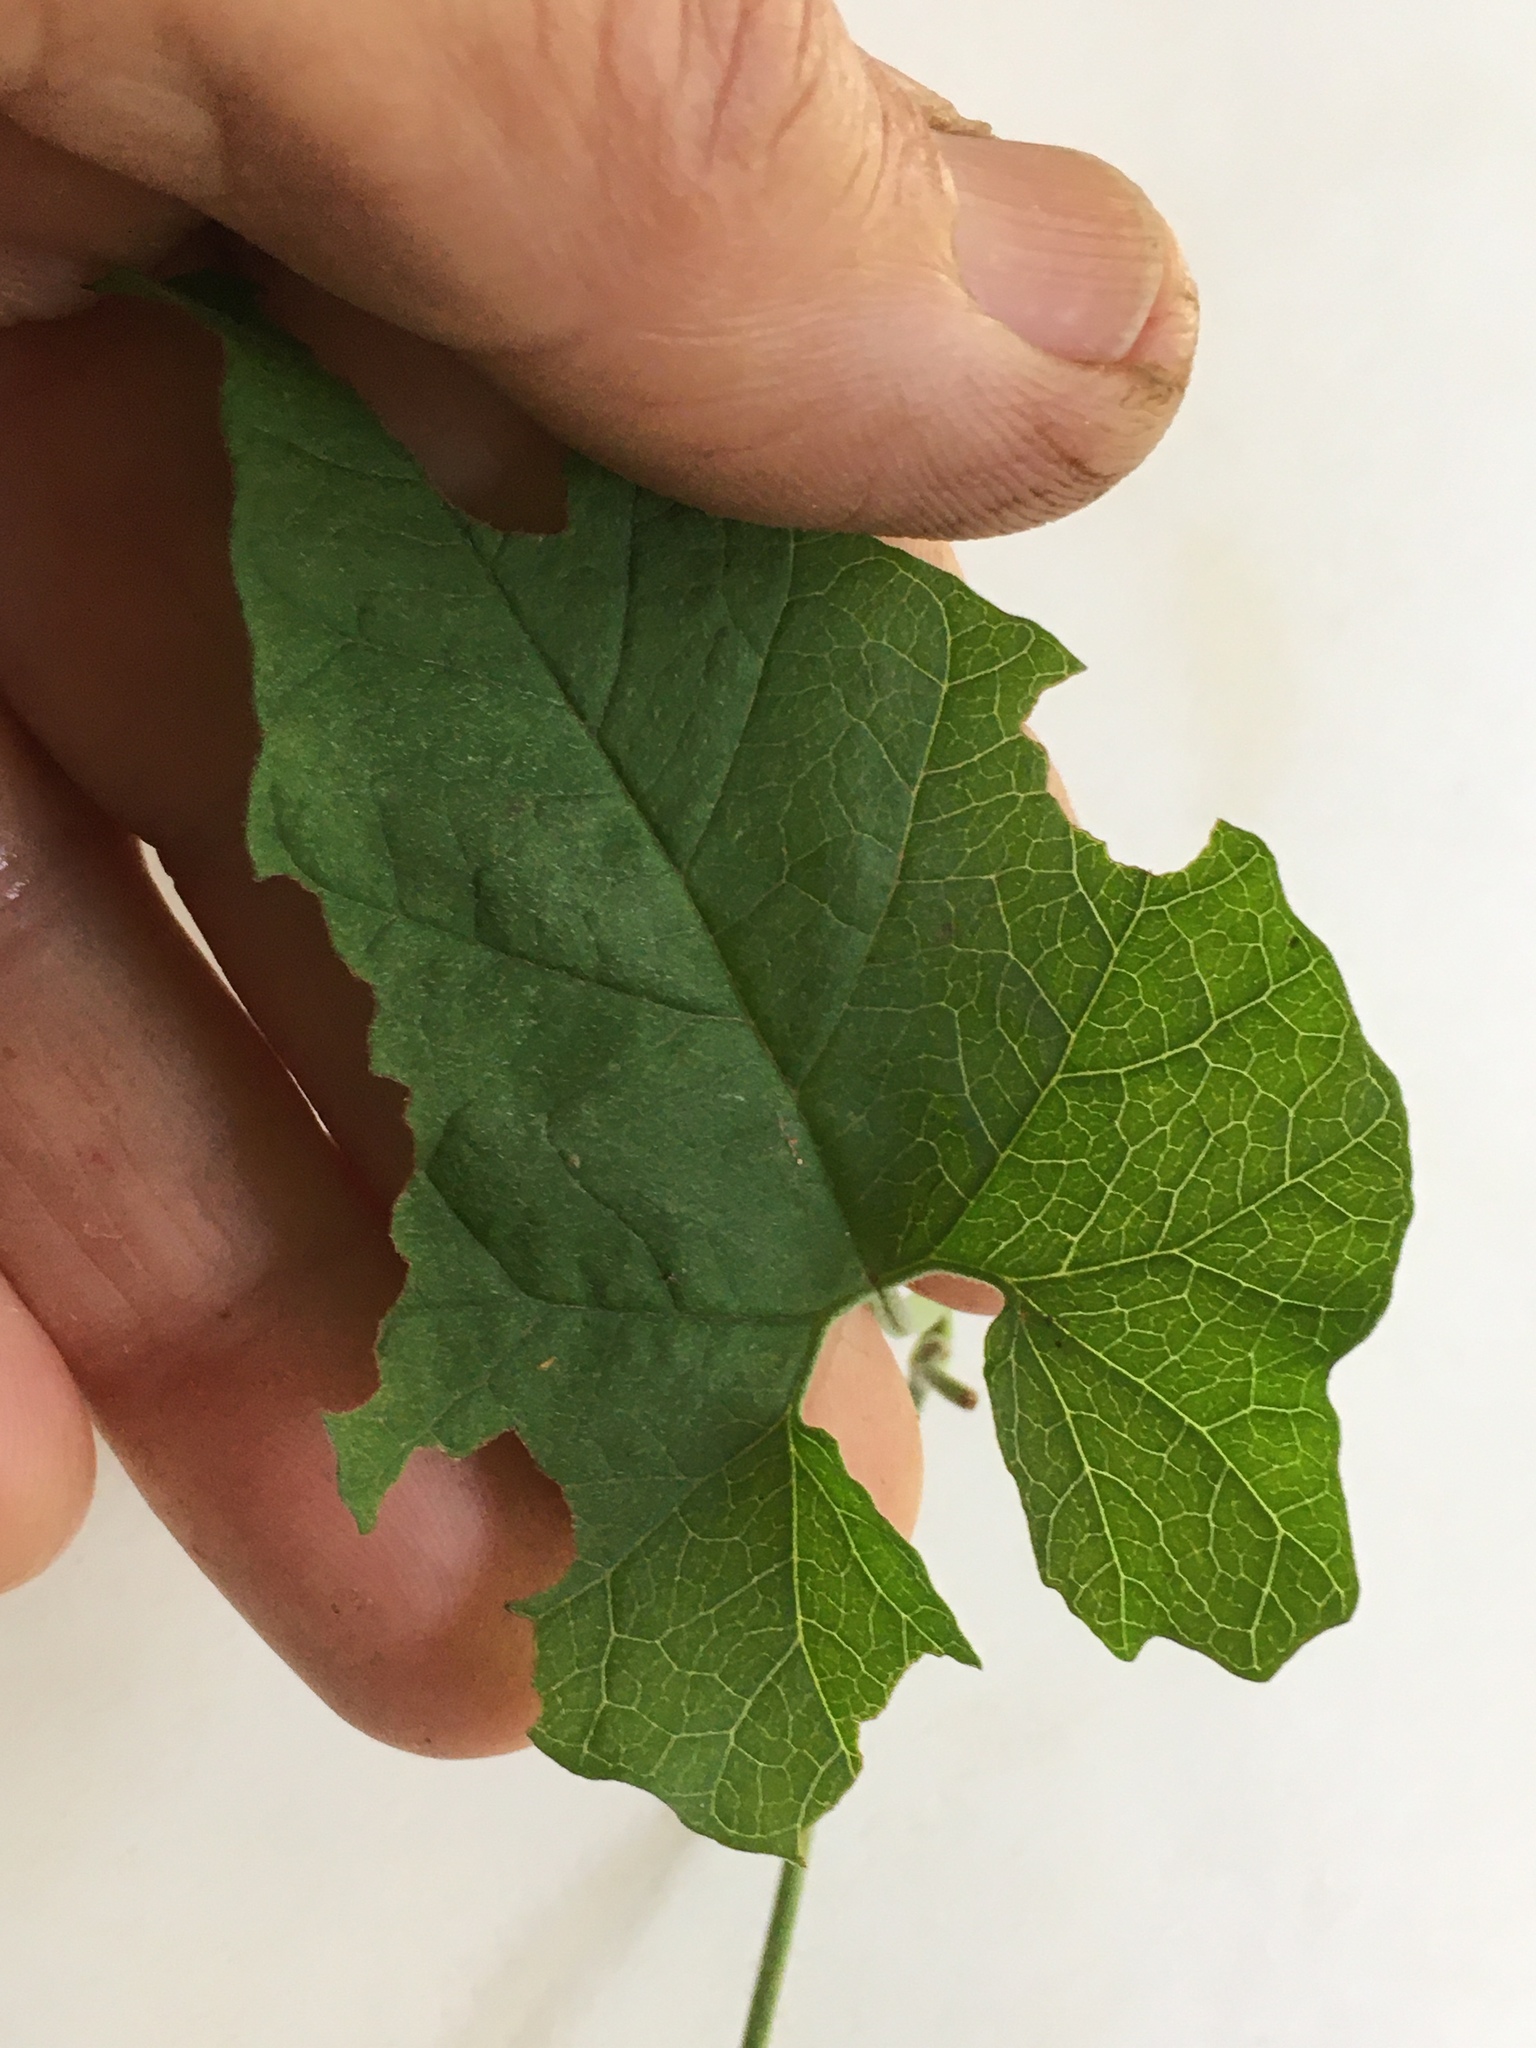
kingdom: Plantae
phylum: Tracheophyta
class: Magnoliopsida
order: Solanales
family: Convolvulaceae
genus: Convolvulus
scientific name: Convolvulus arvensis
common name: Field bindweed
